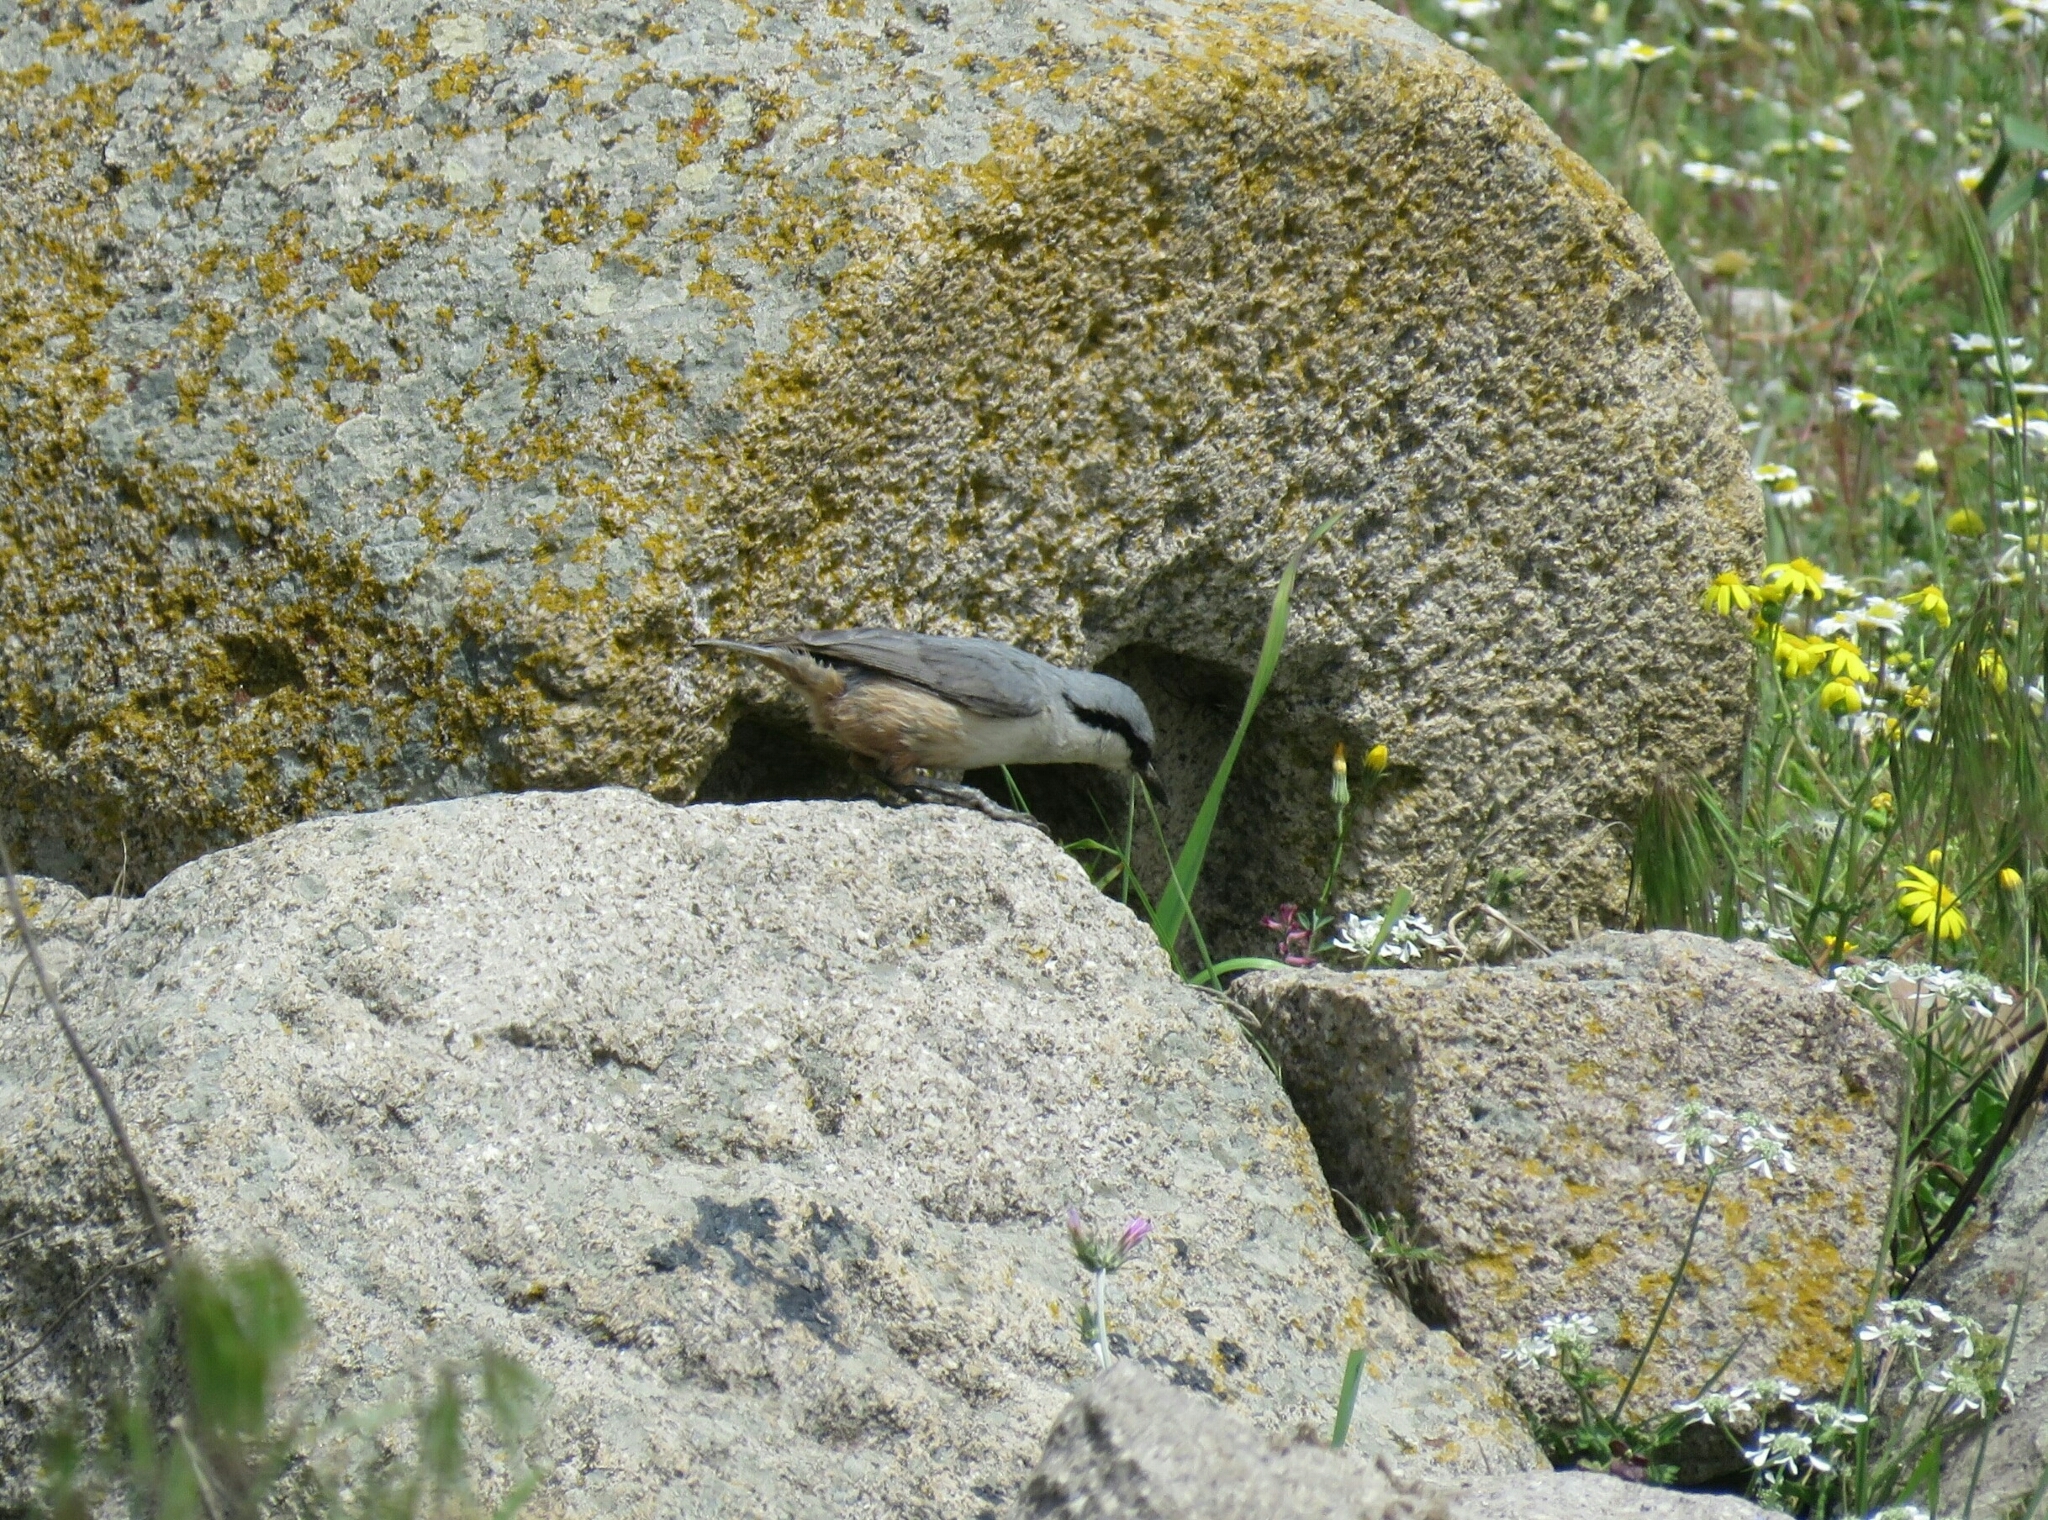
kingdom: Animalia
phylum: Chordata
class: Aves
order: Passeriformes
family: Sittidae
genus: Sitta
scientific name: Sitta neumayer
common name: Western rock nuthatch
